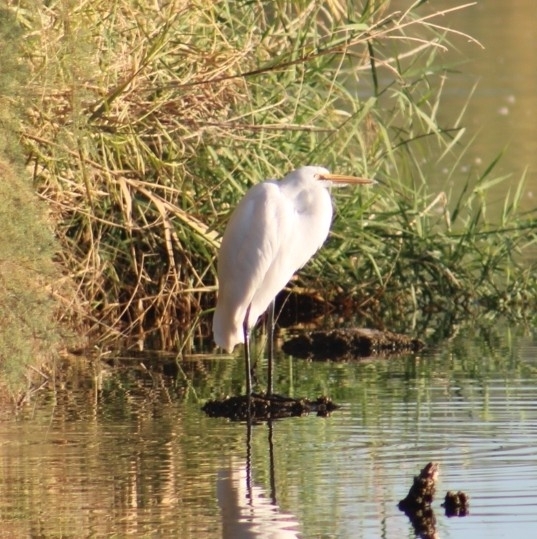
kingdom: Animalia
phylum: Chordata
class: Aves
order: Pelecaniformes
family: Ardeidae
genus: Ardea
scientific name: Ardea alba
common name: Great egret
